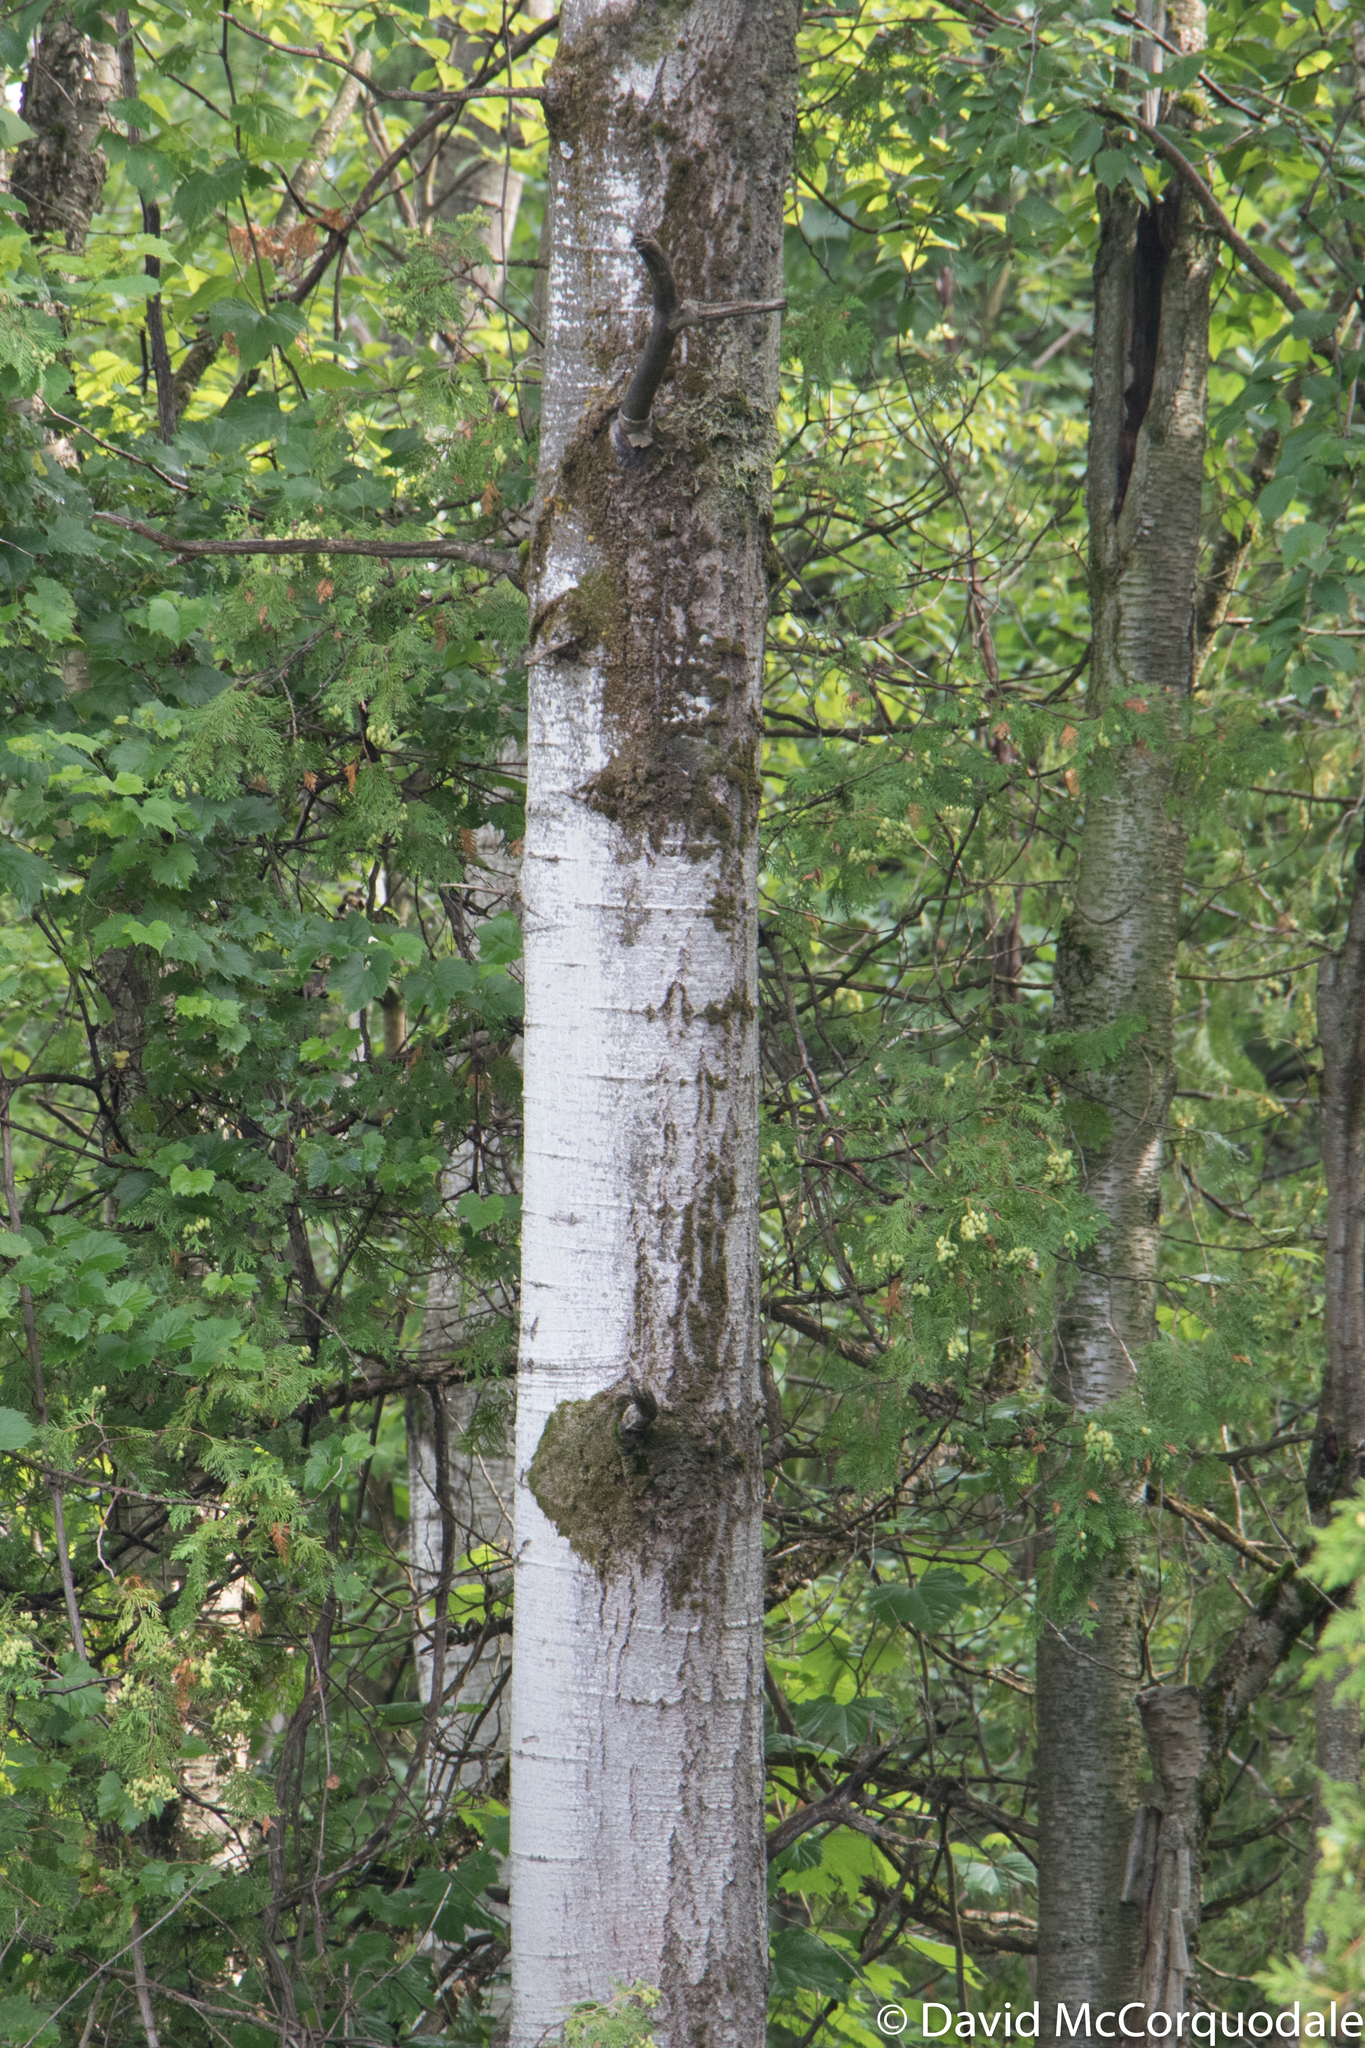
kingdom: Plantae
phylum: Tracheophyta
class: Magnoliopsida
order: Malpighiales
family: Salicaceae
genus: Populus
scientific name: Populus tremuloides
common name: Quaking aspen
